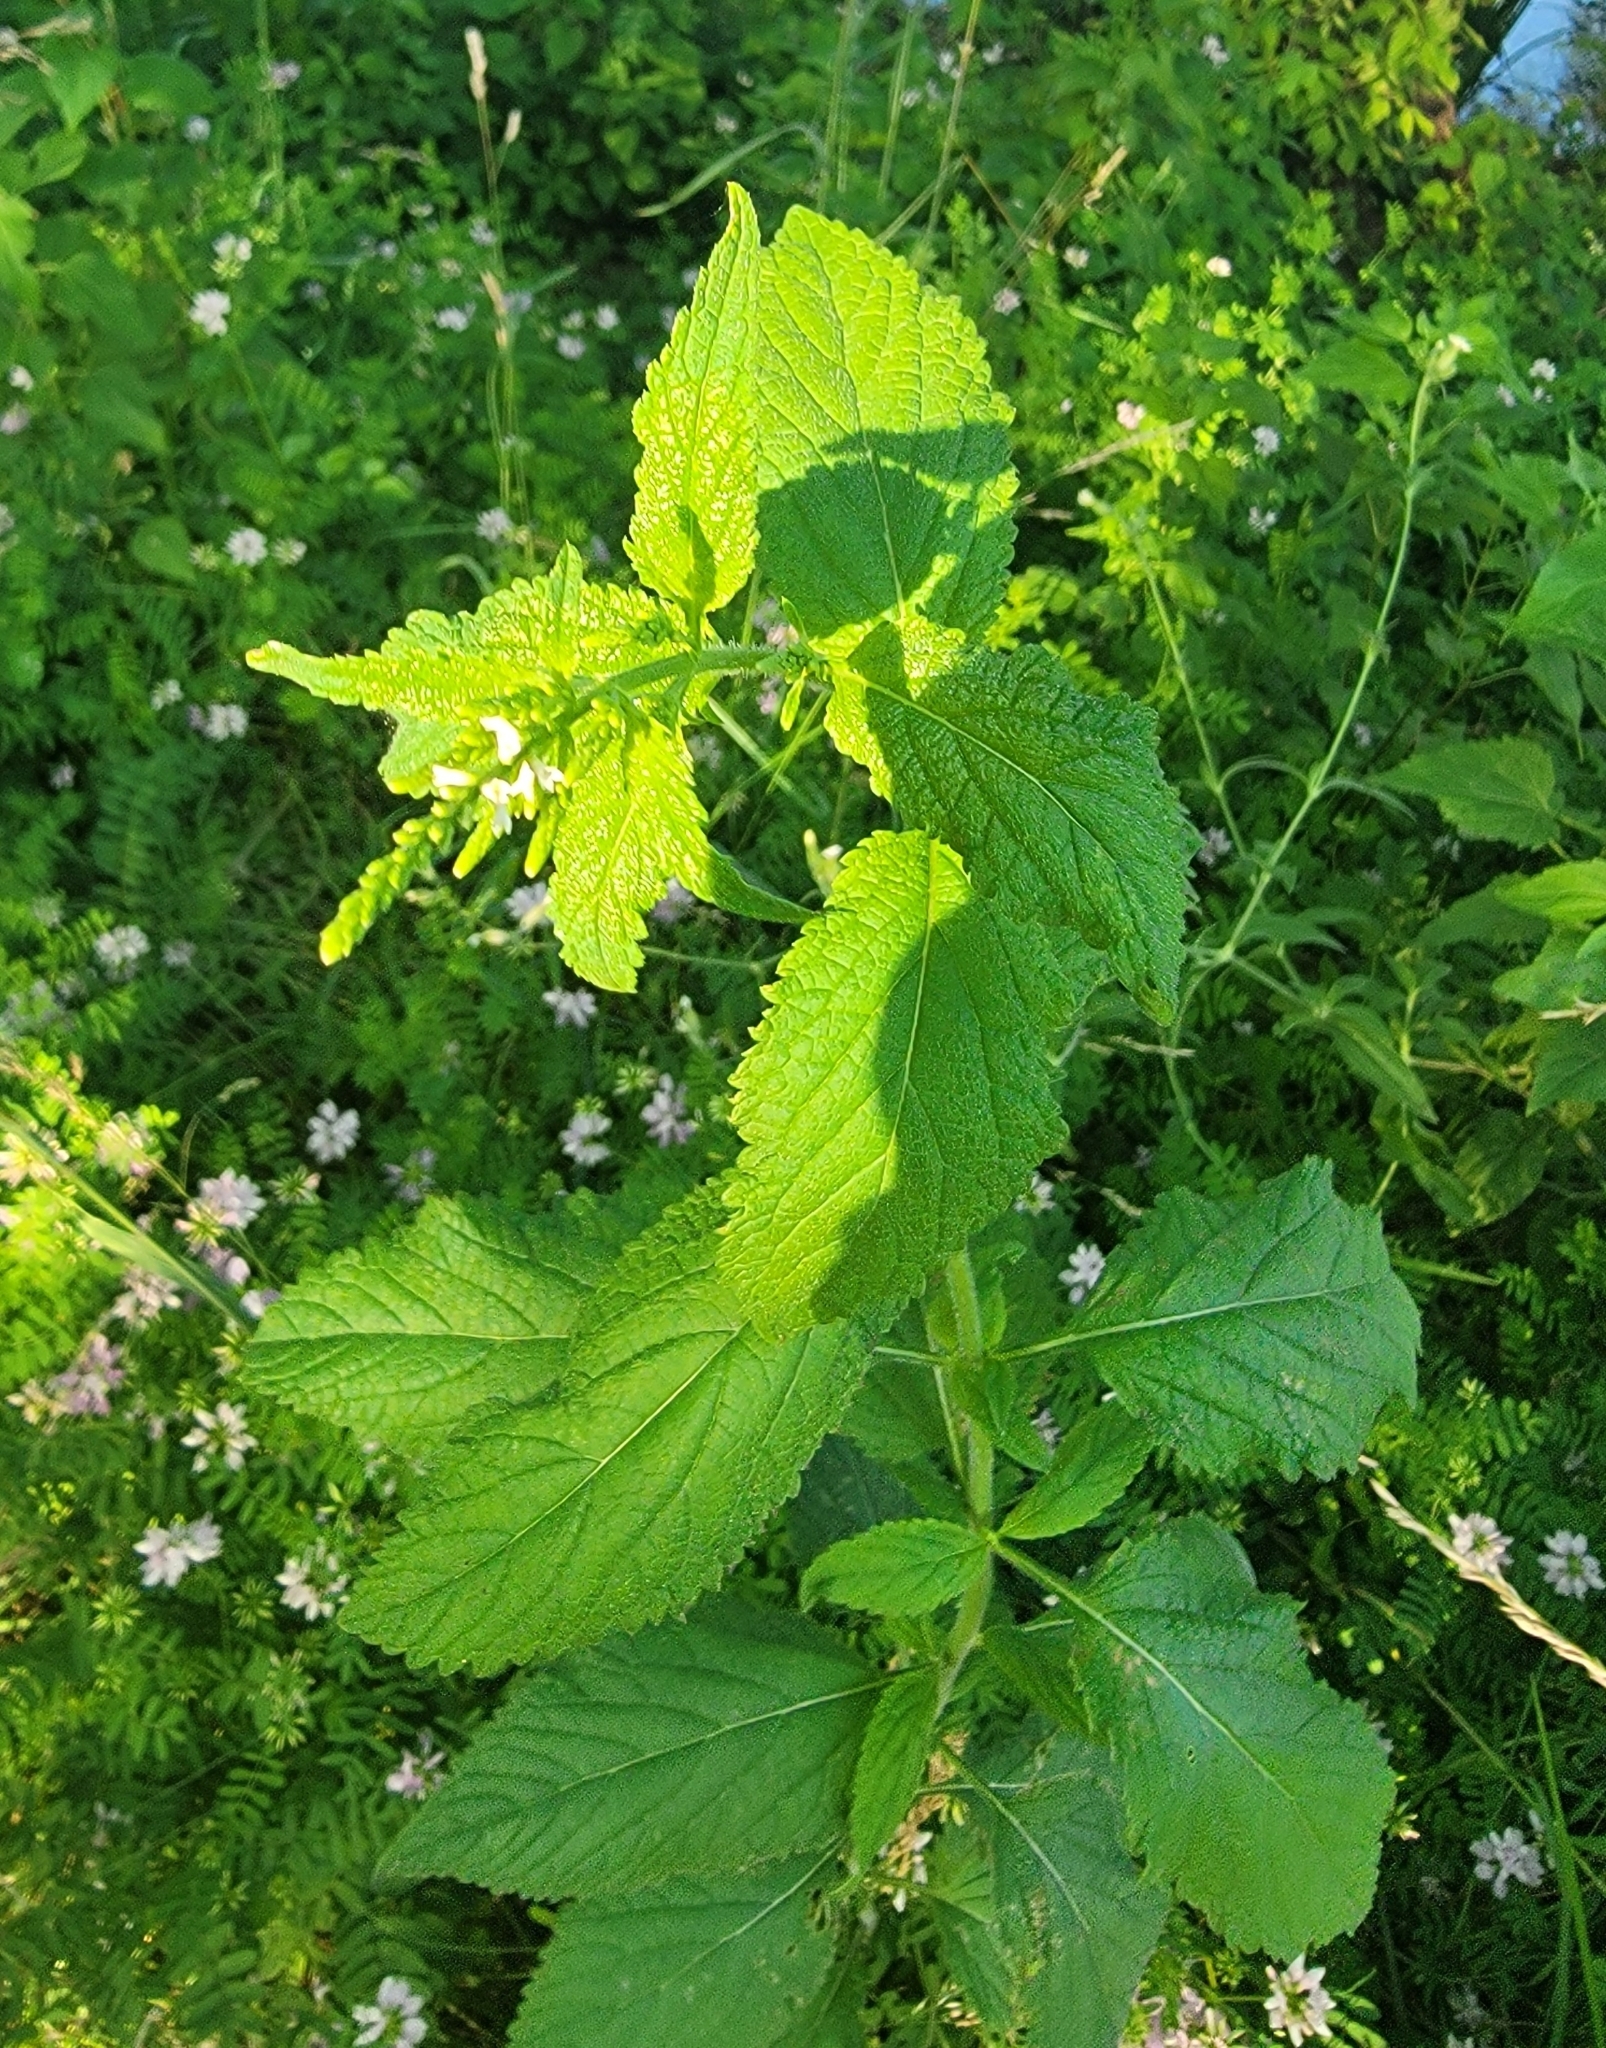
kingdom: Plantae
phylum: Tracheophyta
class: Magnoliopsida
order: Lamiales
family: Verbenaceae
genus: Verbena
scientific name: Verbena urticifolia
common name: Nettle-leaved vervain
